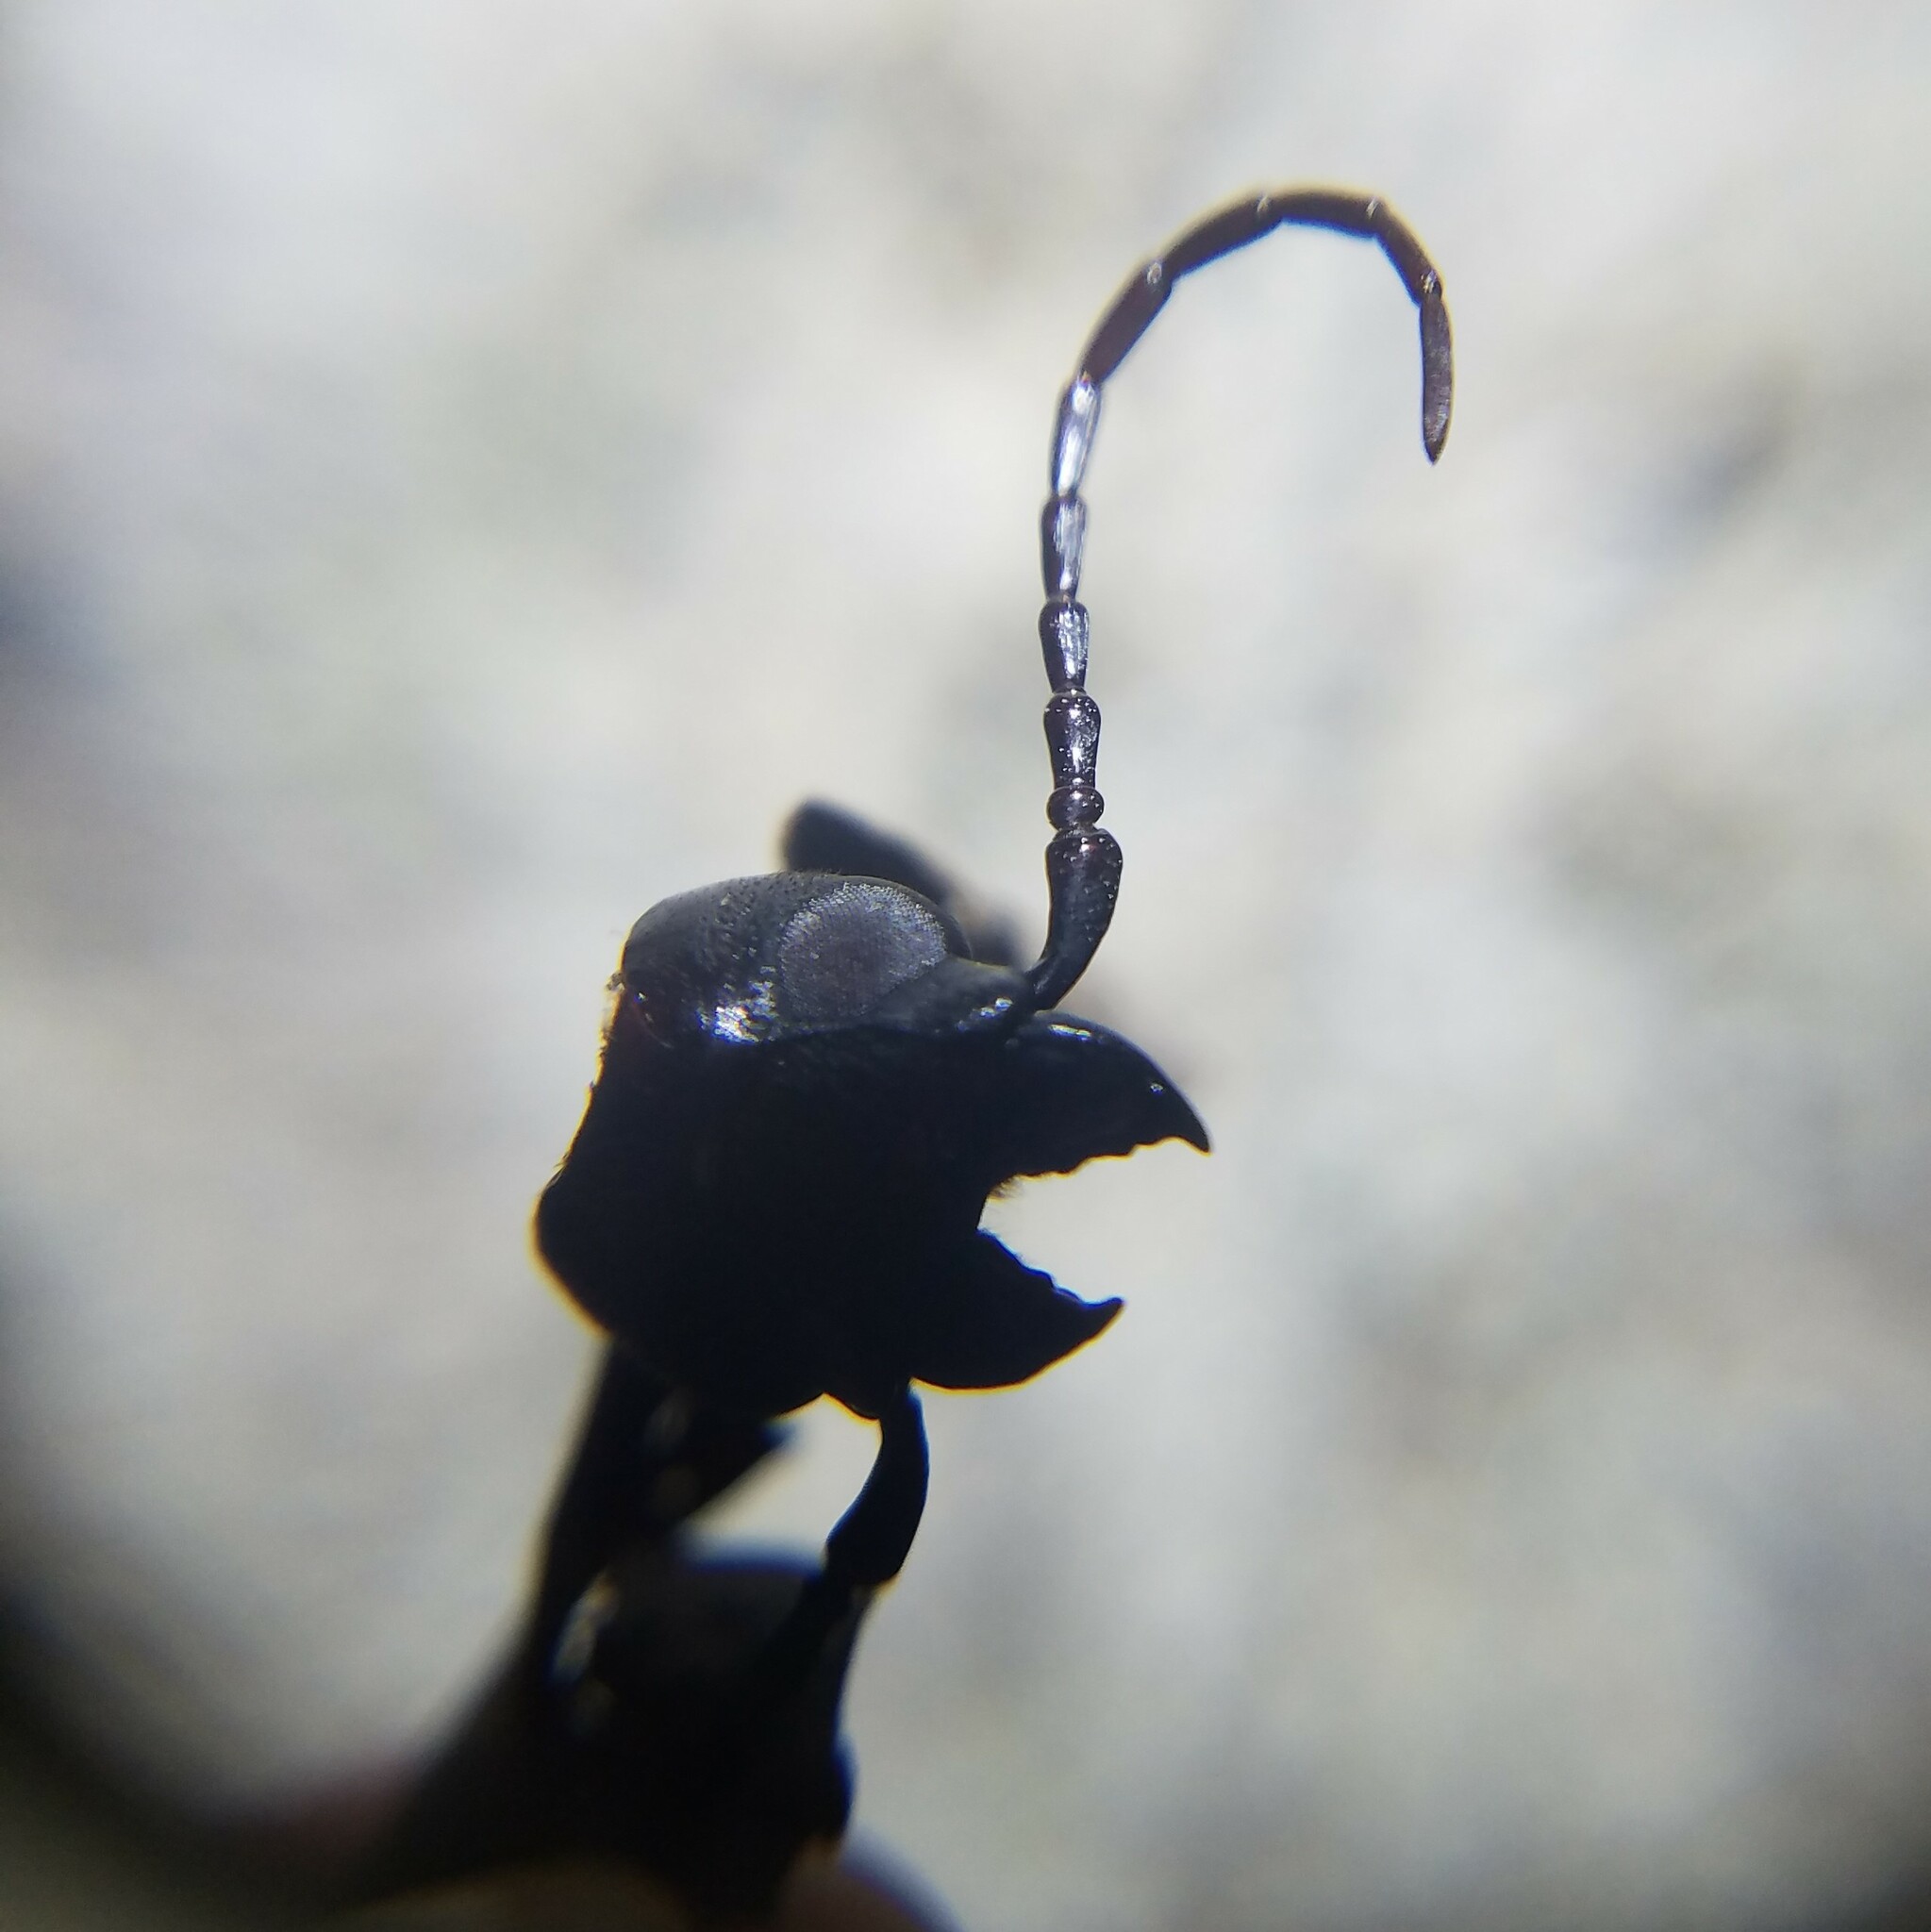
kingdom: Animalia
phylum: Arthropoda
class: Insecta
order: Coleoptera
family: Cerambycidae
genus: Orthosoma
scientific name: Orthosoma brunneum
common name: Brown prionid beetle
